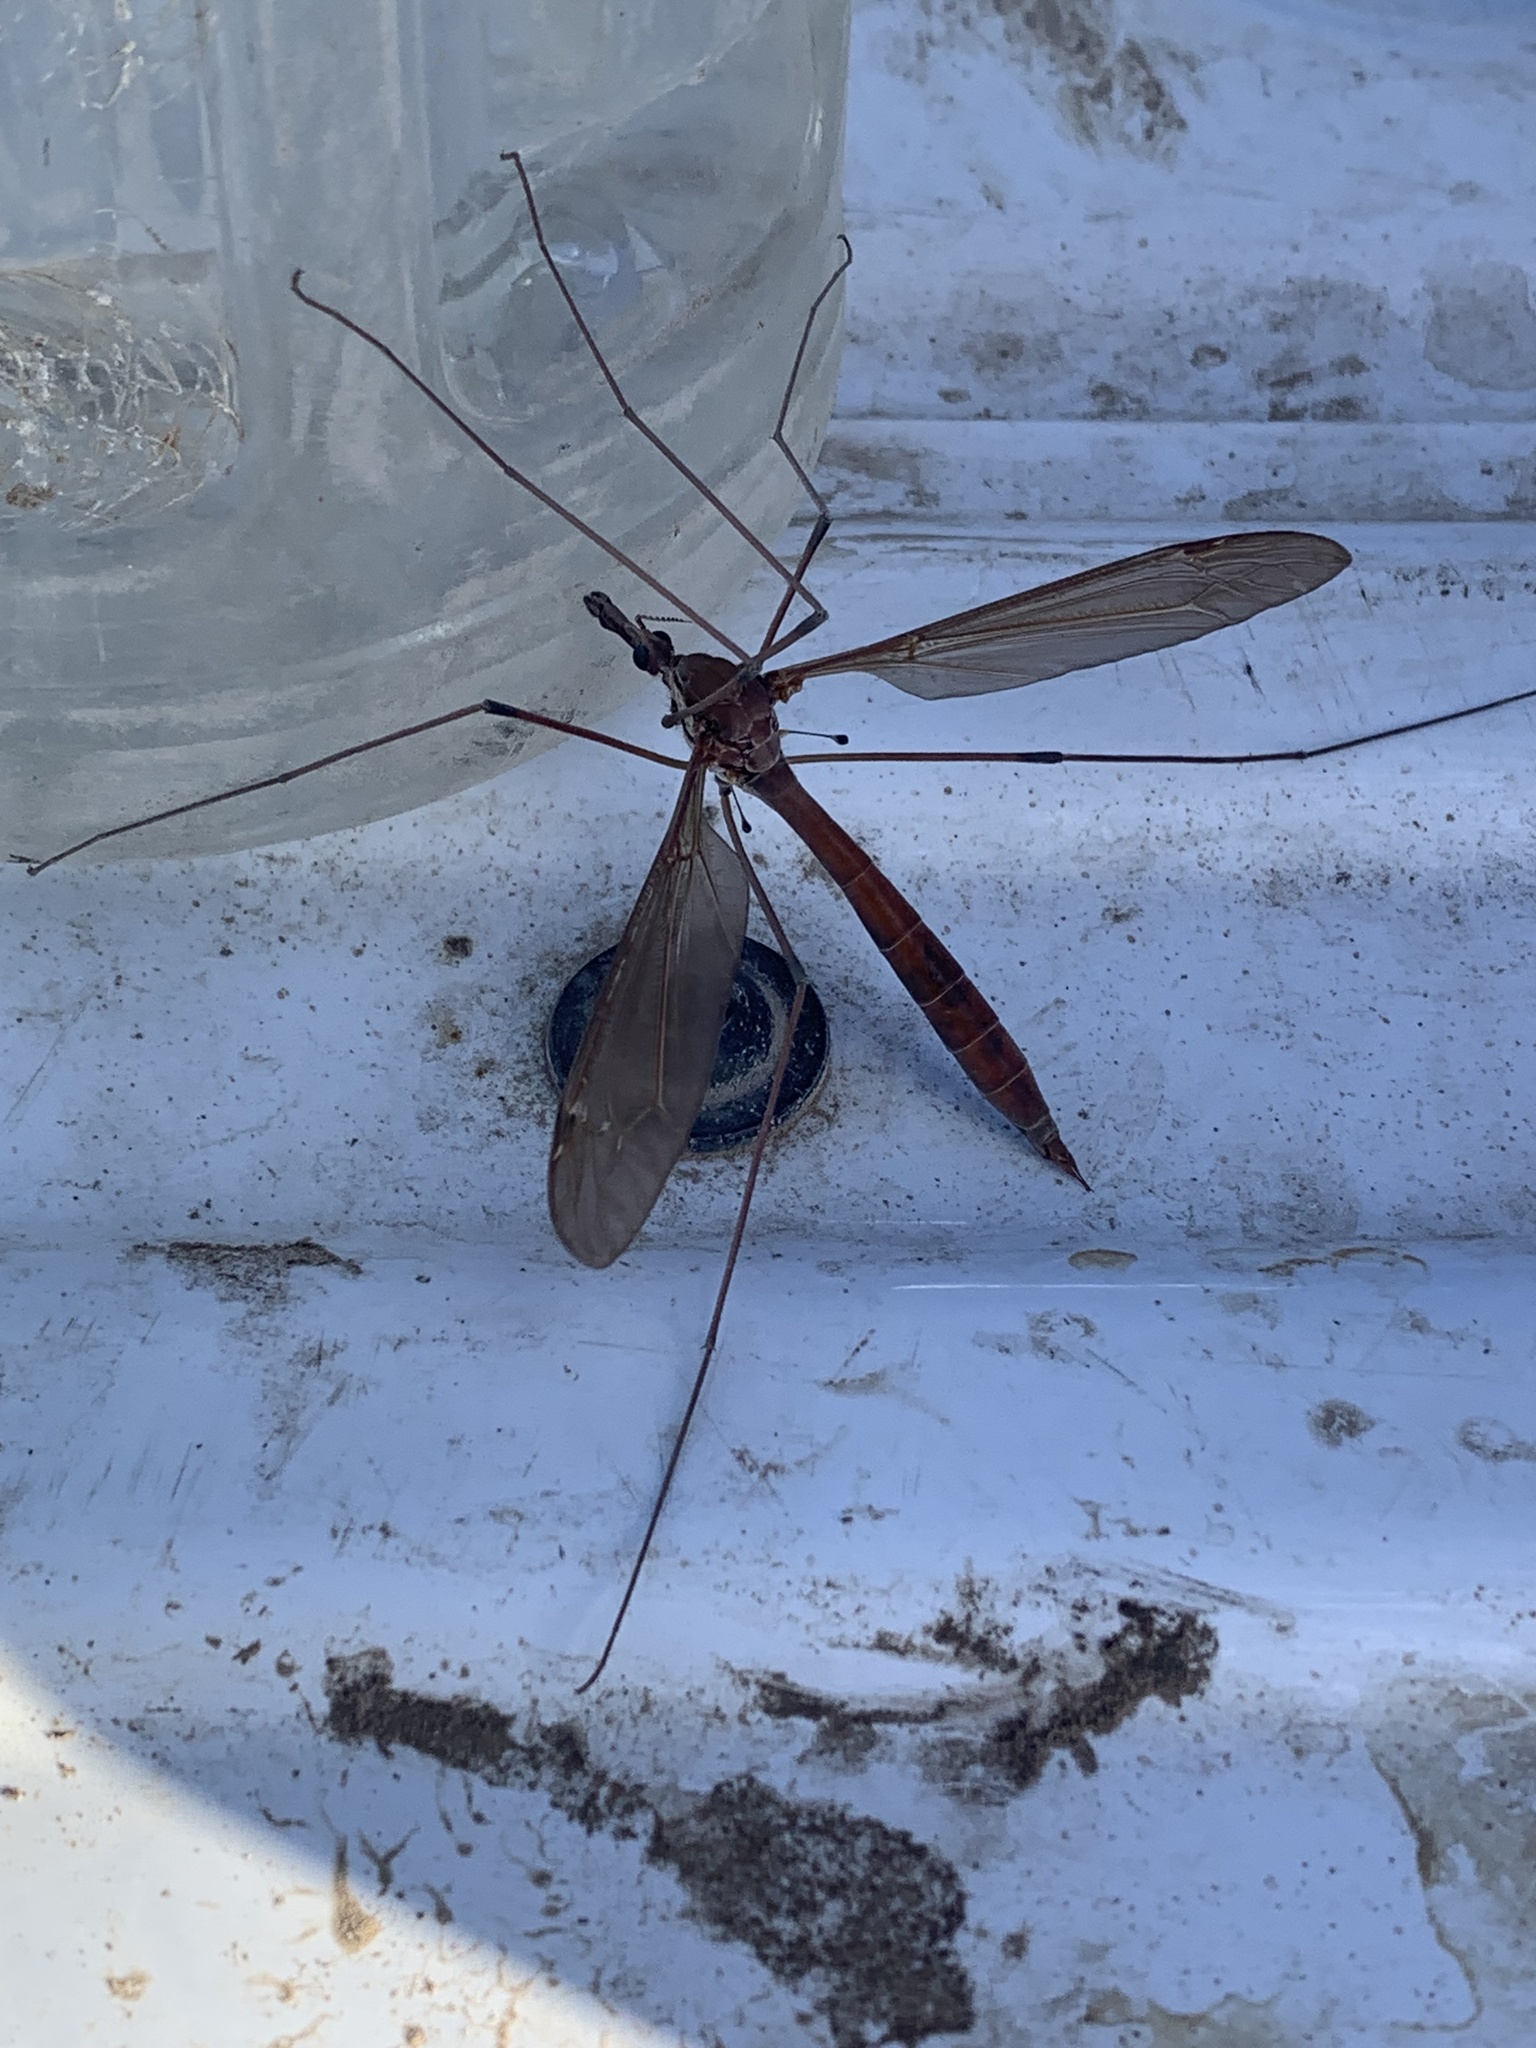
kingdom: Animalia
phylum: Arthropoda
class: Insecta
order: Diptera
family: Tipulidae
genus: Holorusia
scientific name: Holorusia hespera
